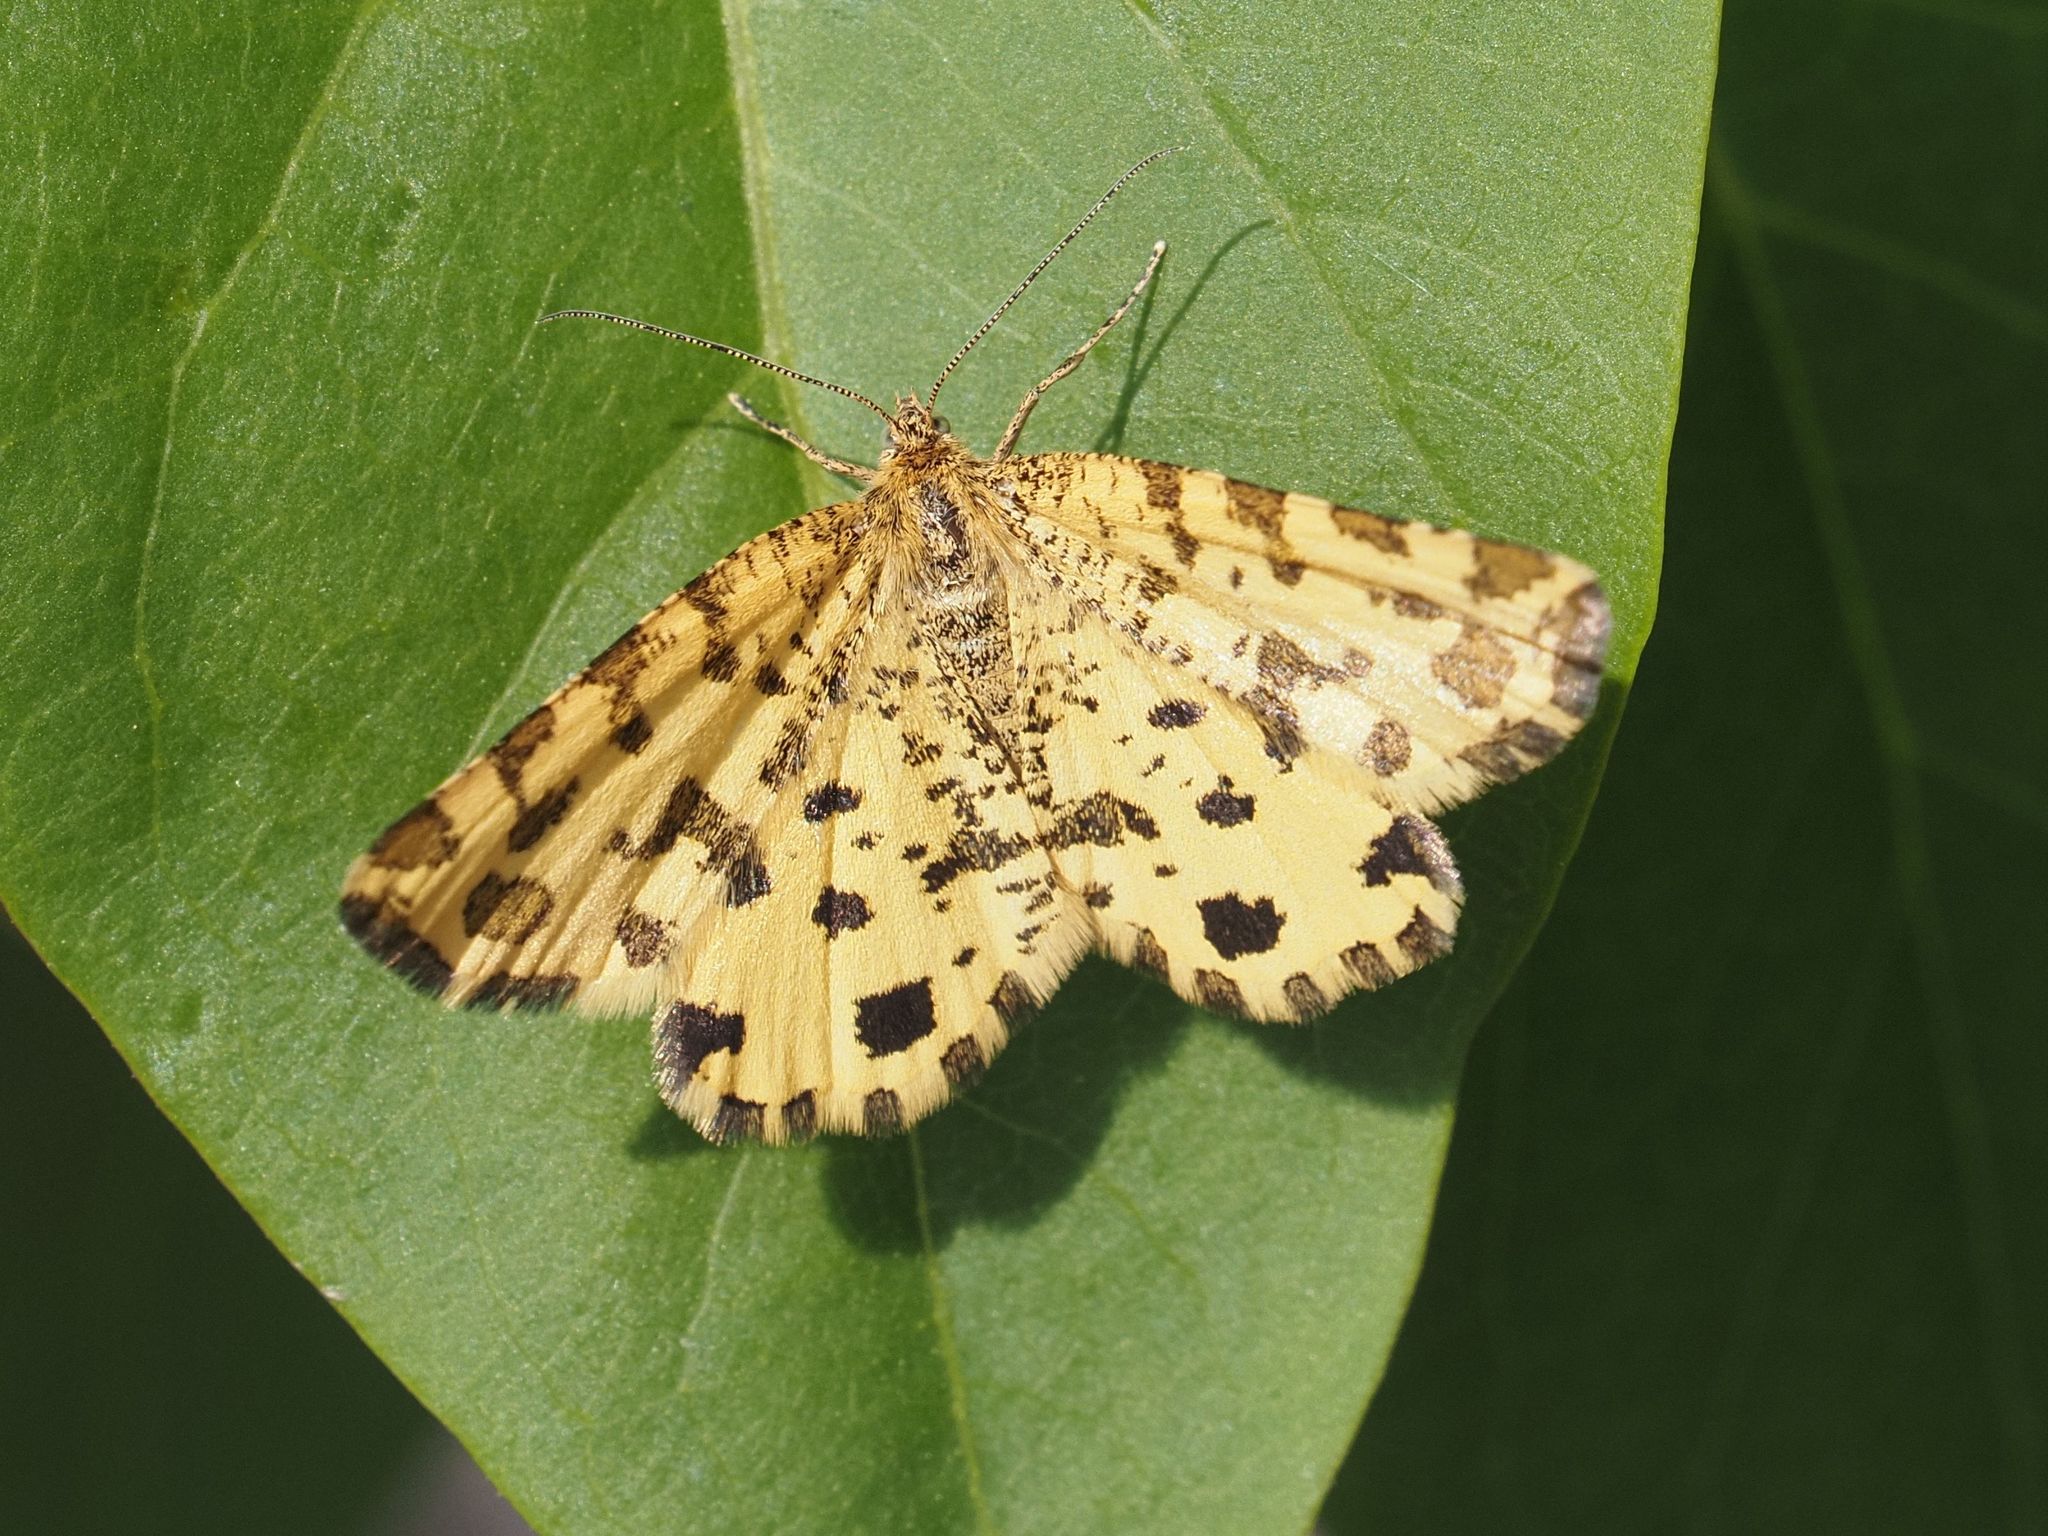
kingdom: Animalia
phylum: Arthropoda
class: Insecta
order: Lepidoptera
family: Geometridae
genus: Pseudopanthera
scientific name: Pseudopanthera macularia
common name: Speckled yellow
